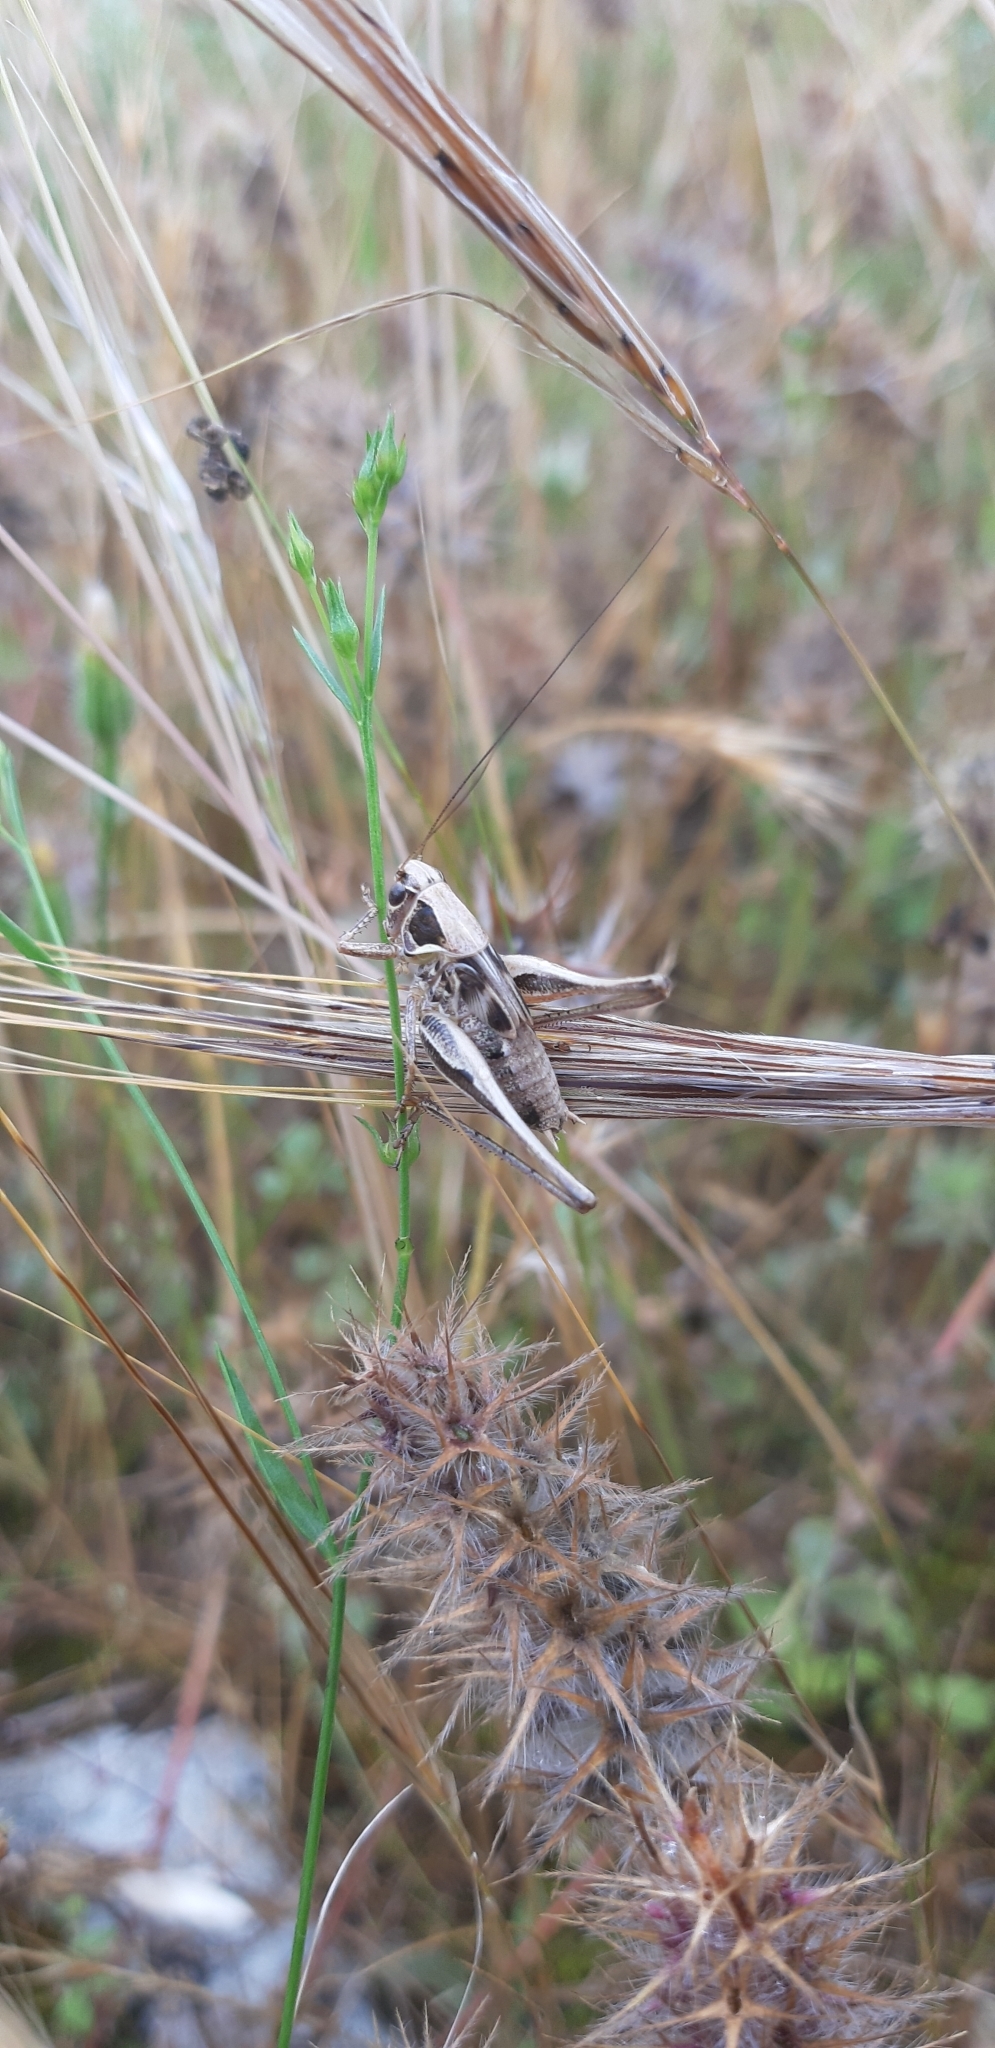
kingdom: Animalia
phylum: Arthropoda
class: Insecta
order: Orthoptera
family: Tettigoniidae
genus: Montana
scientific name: Montana stricta
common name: Italian bush-cricket
